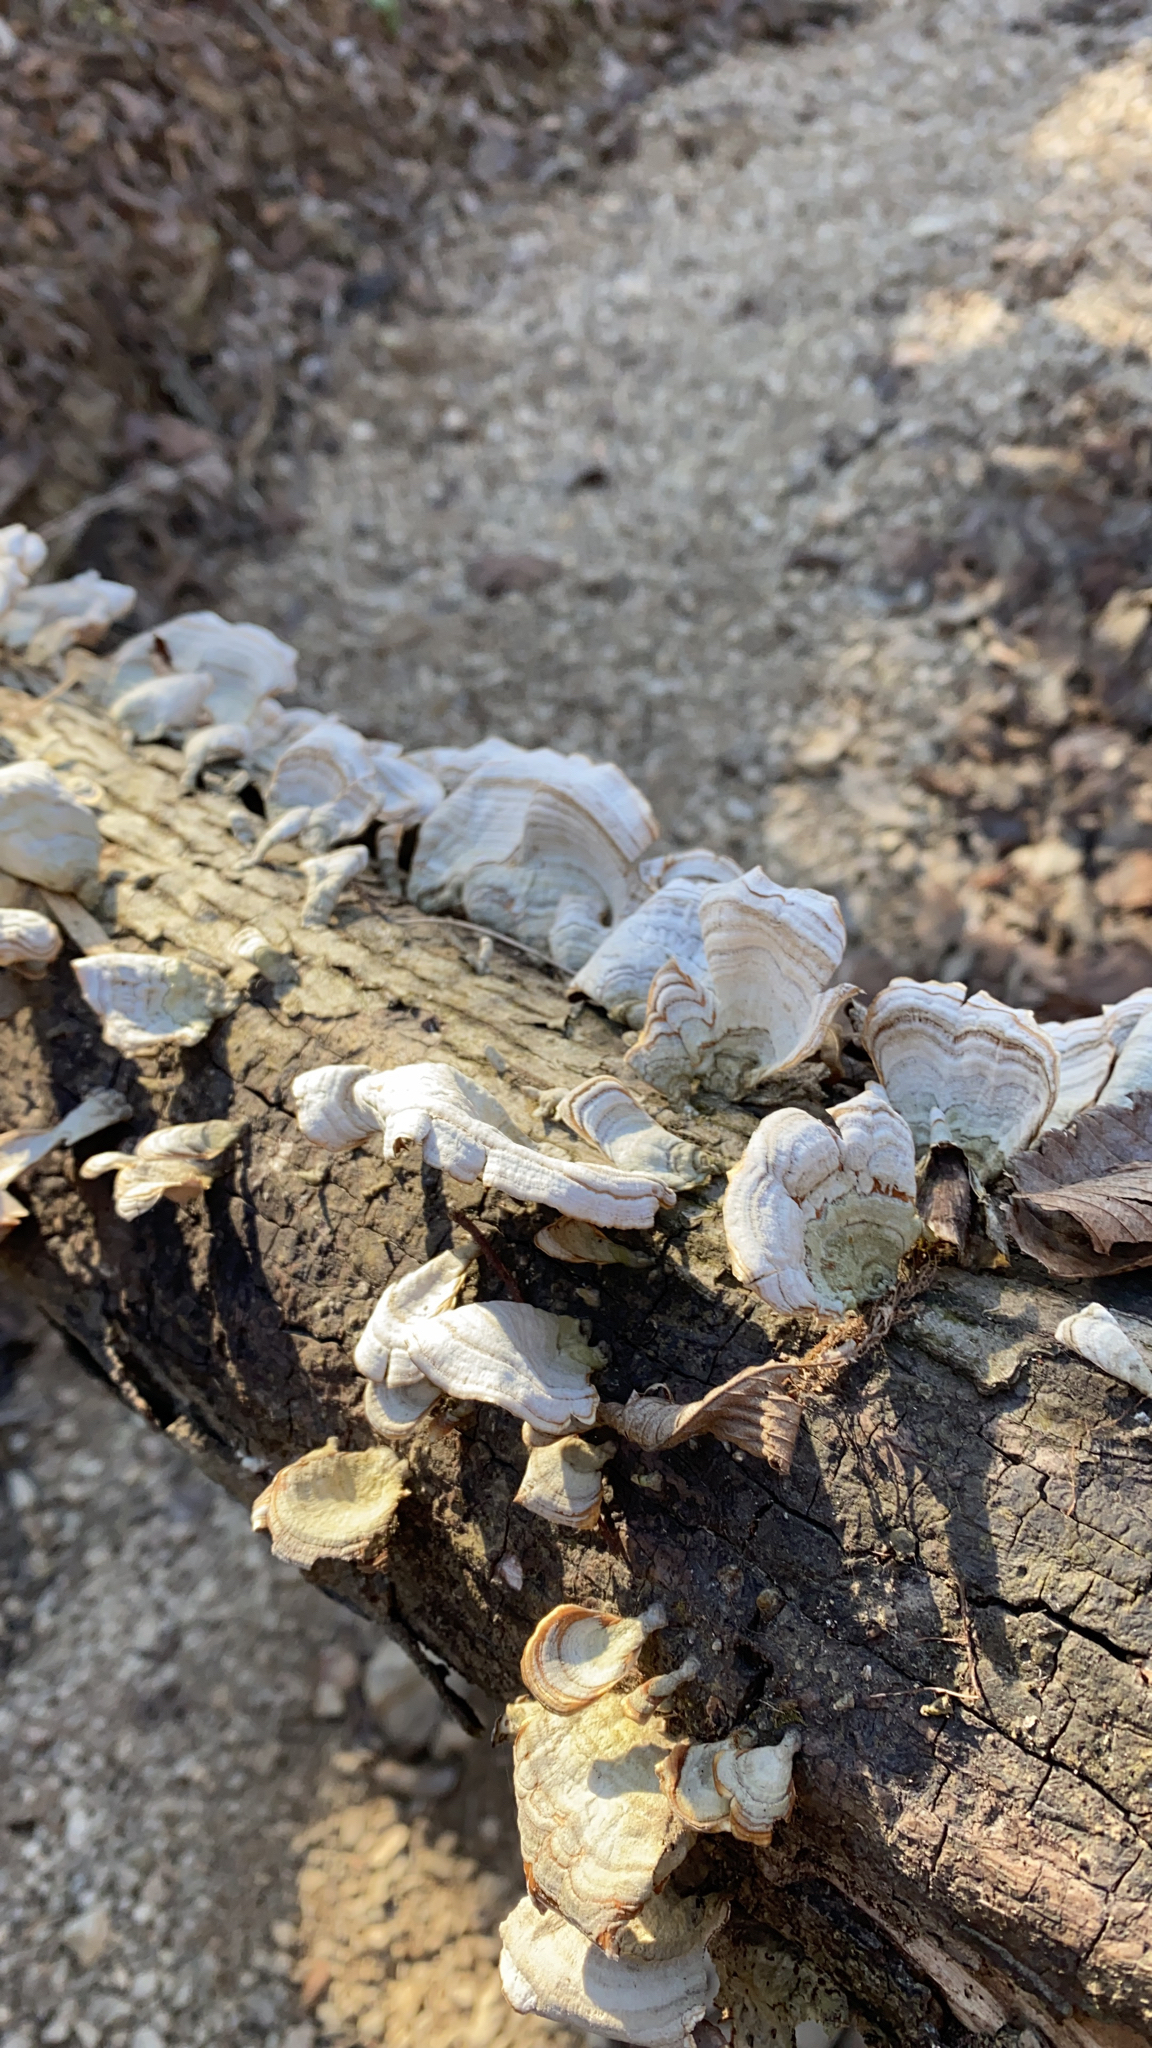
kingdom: Fungi
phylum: Basidiomycota
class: Agaricomycetes
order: Russulales
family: Stereaceae
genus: Stereum
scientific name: Stereum ostrea
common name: False turkeytail
